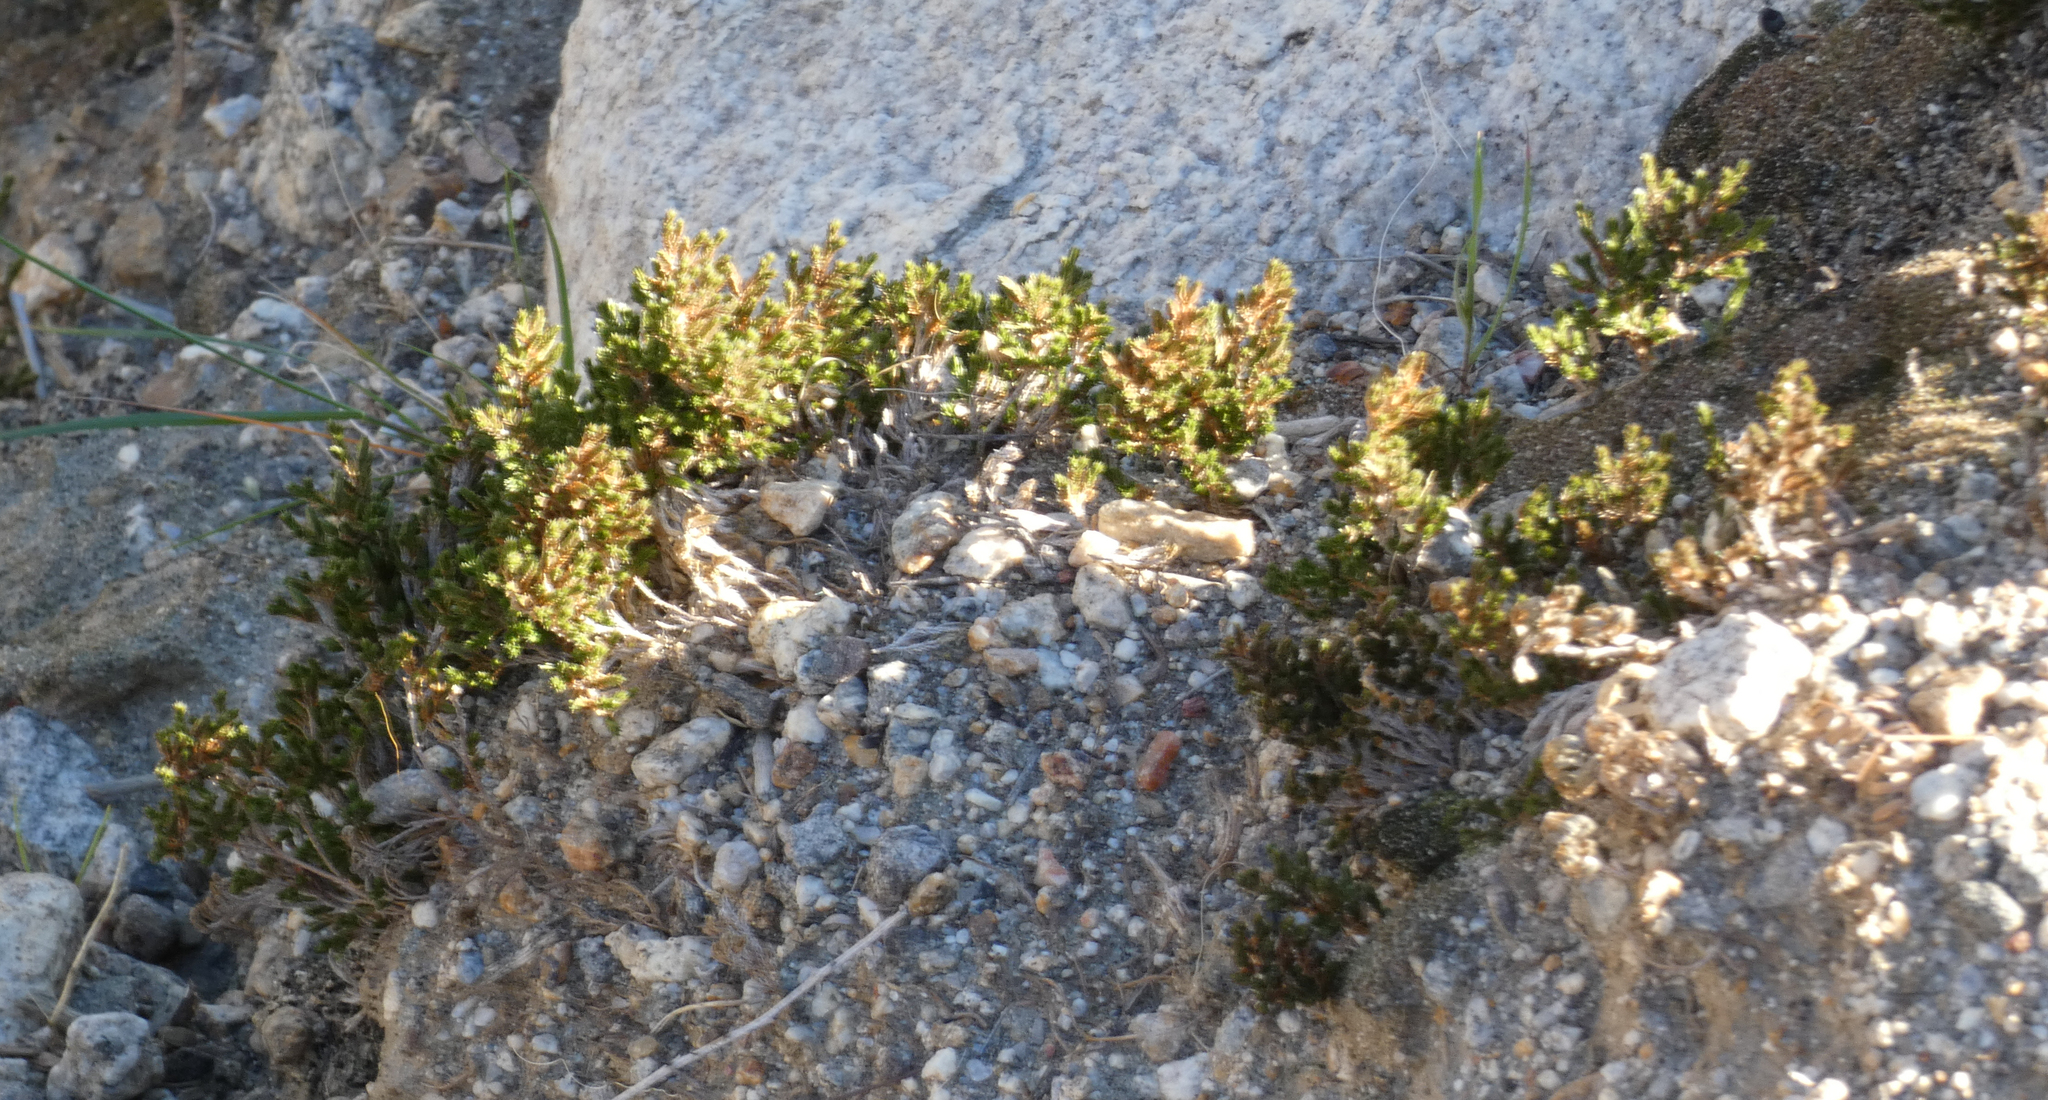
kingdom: Plantae
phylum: Tracheophyta
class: Lycopodiopsida
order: Selaginellales
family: Selaginellaceae
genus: Selaginella
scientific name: Selaginella bigelovii
